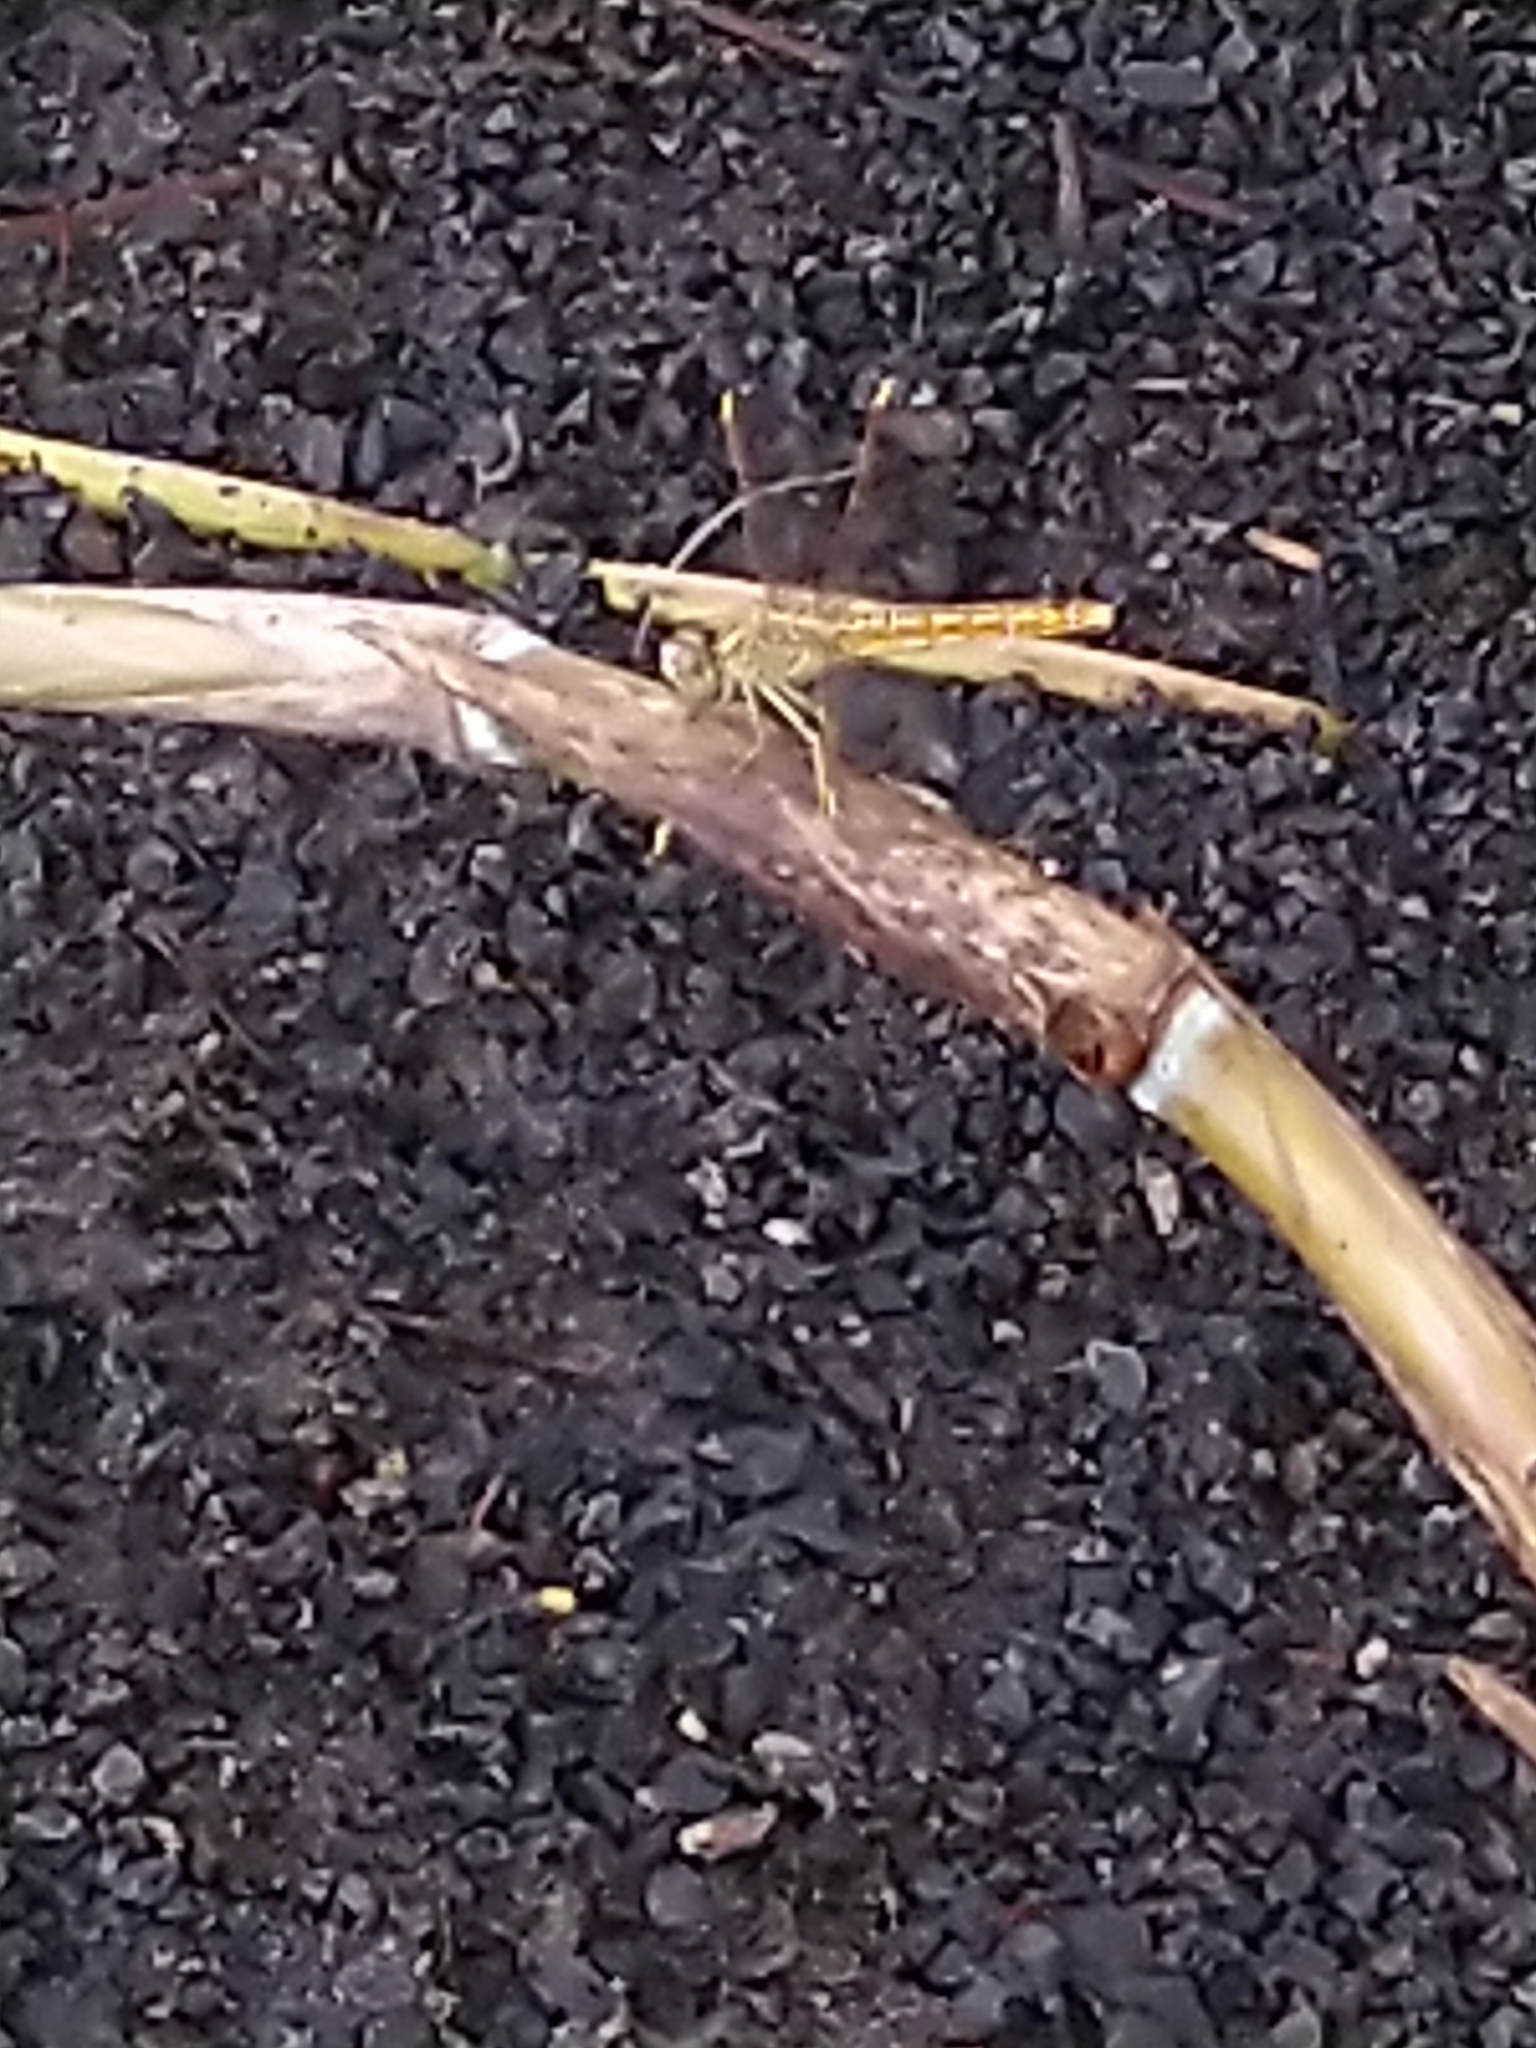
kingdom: Animalia
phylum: Arthropoda
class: Insecta
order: Odonata
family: Libellulidae
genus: Brachythemis
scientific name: Brachythemis contaminata
